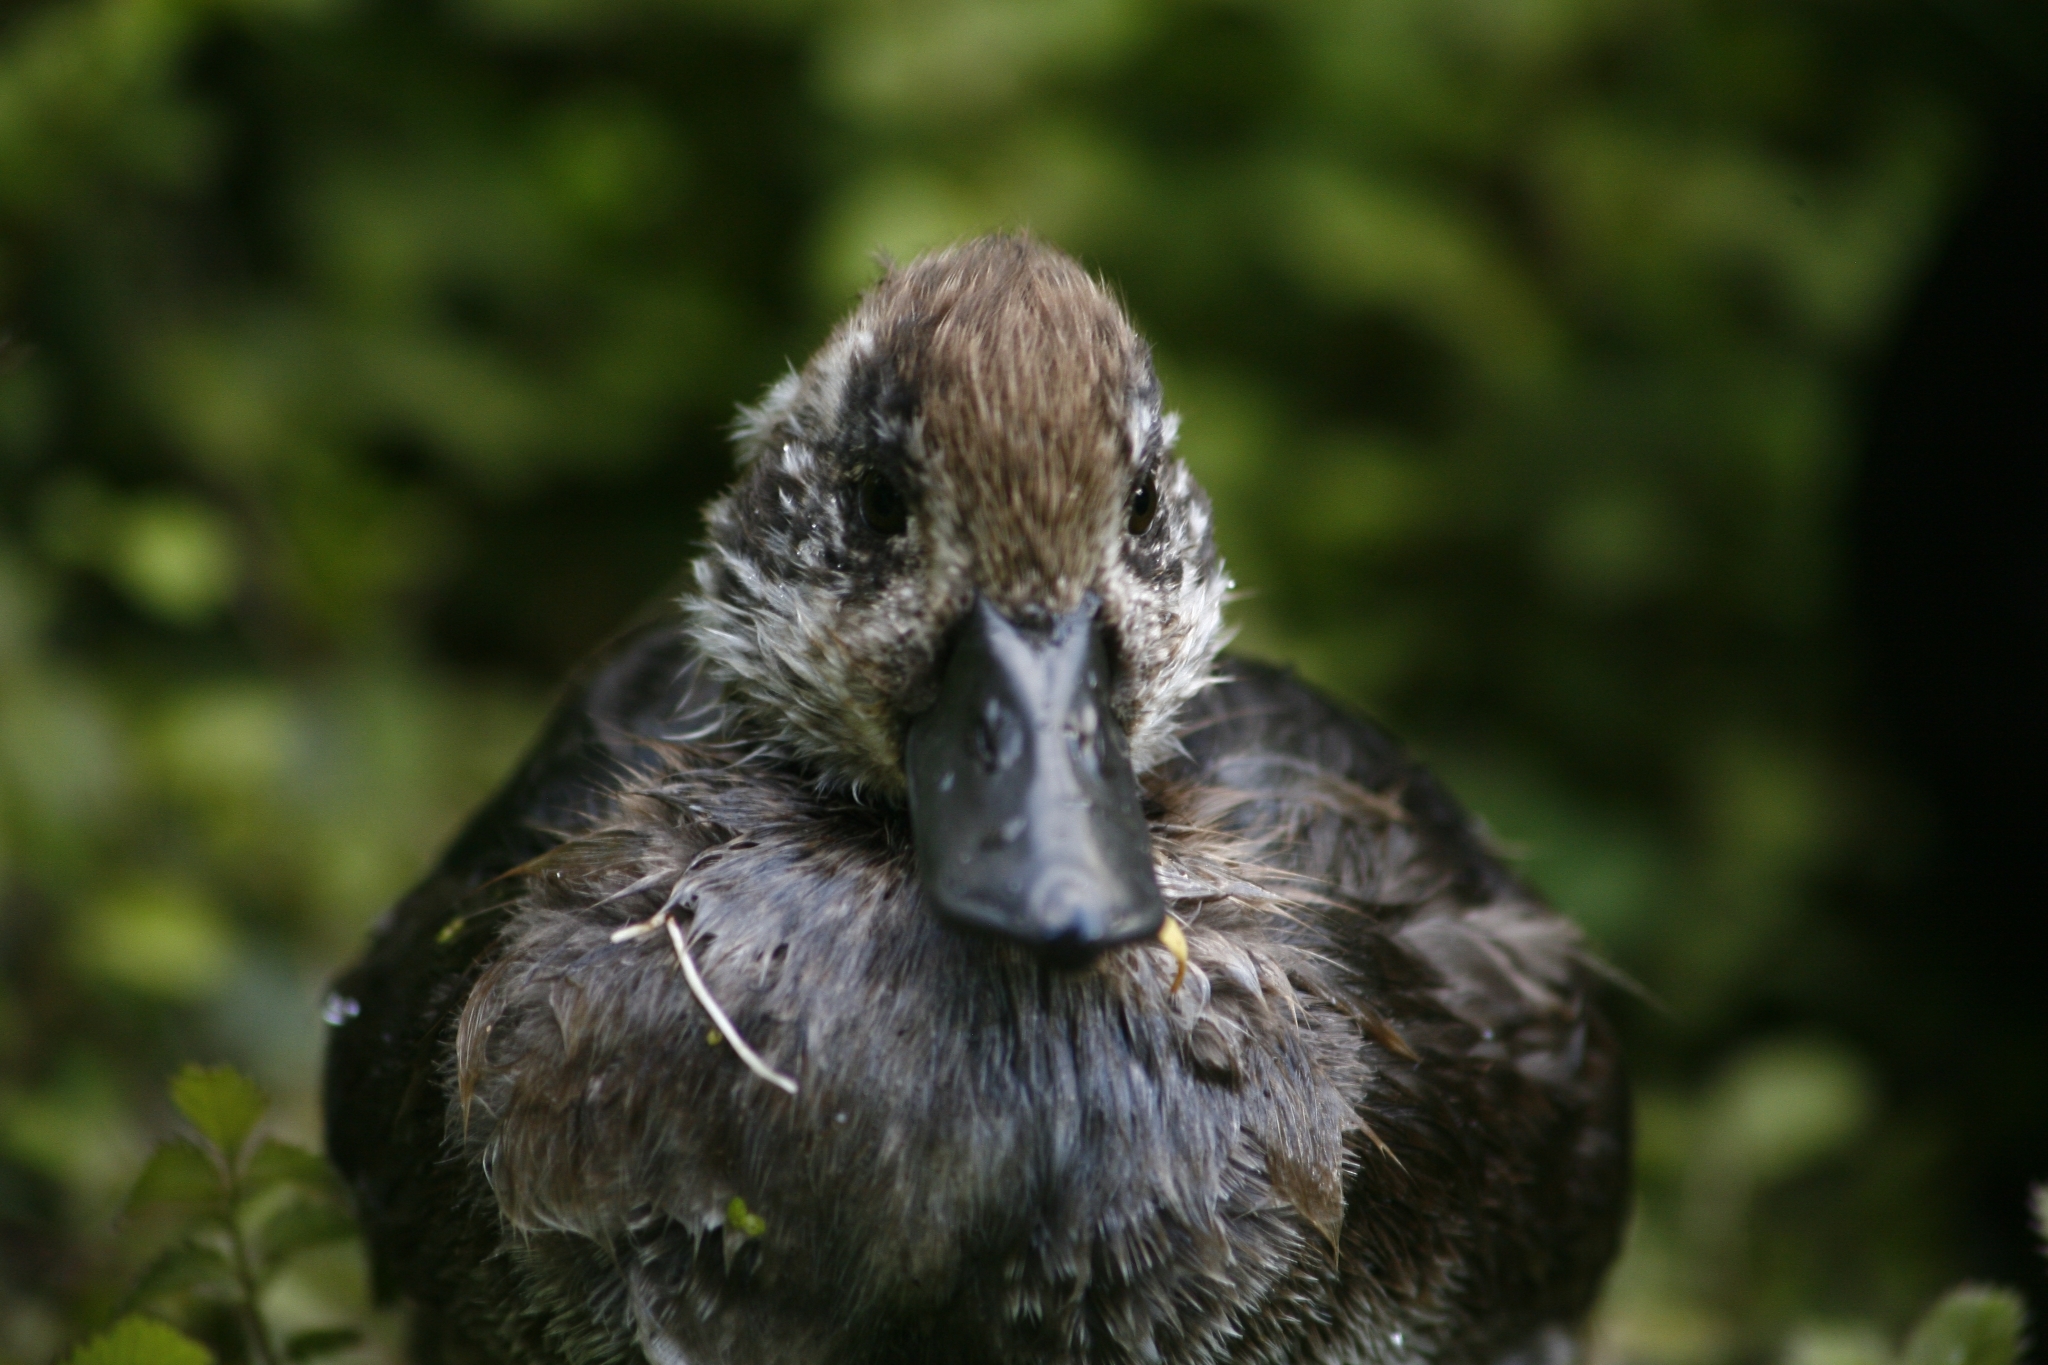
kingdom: Animalia
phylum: Chordata
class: Aves
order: Anseriformes
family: Anatidae
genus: Aythya
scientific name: Aythya novaeseelandiae
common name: New zealand scaup
